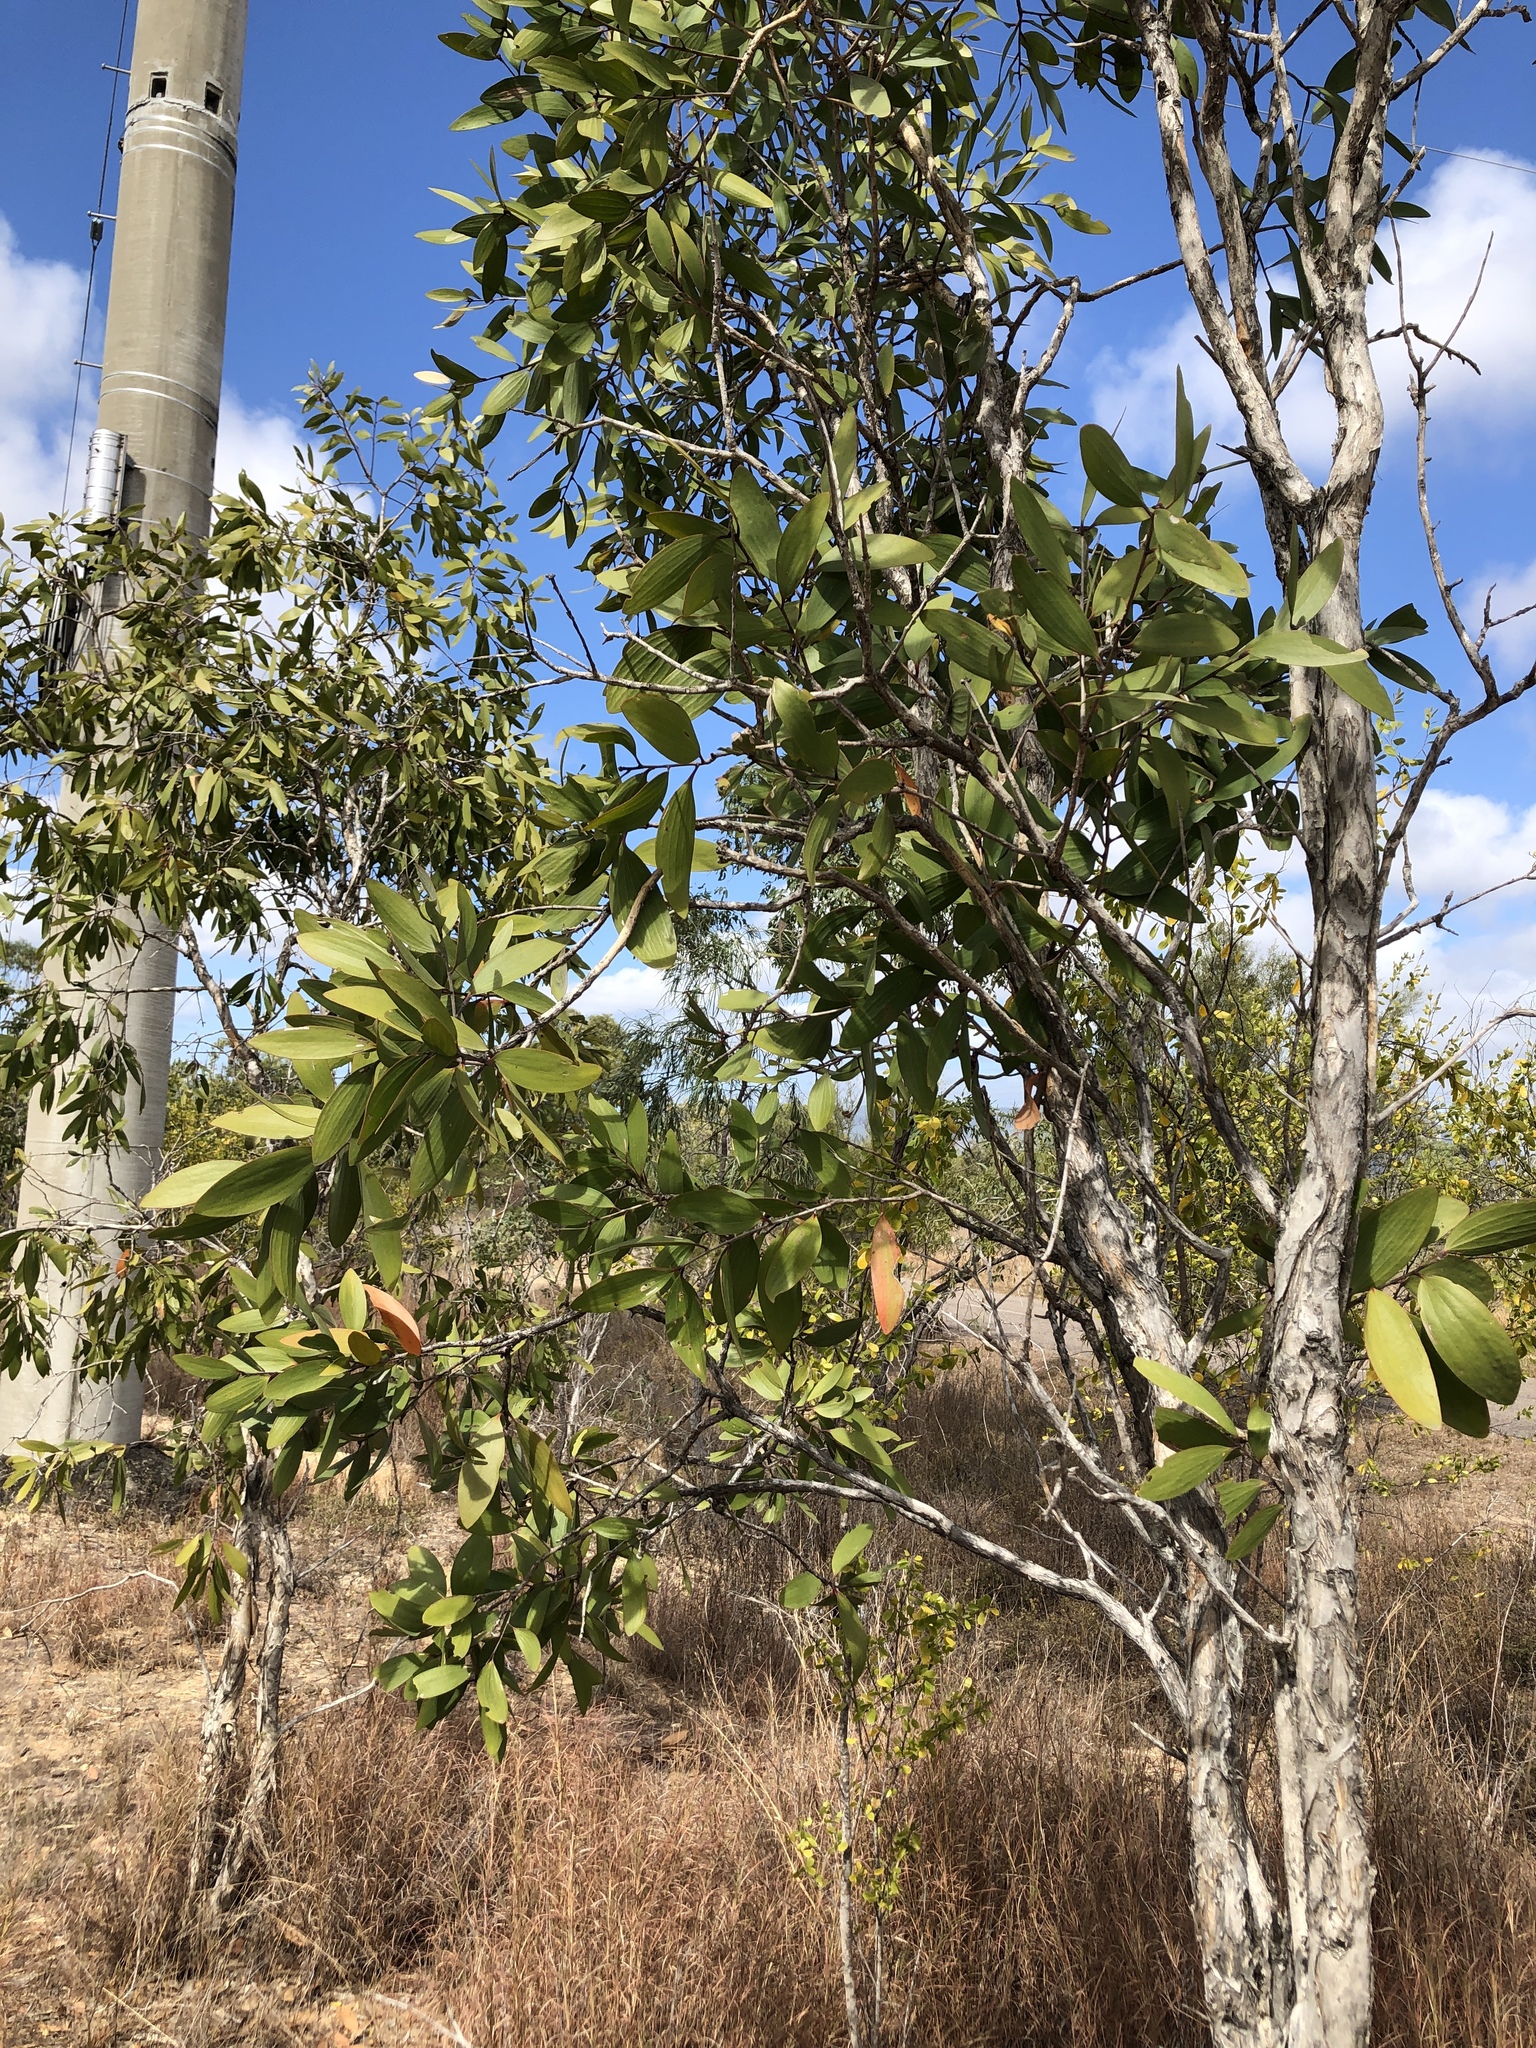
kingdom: Plantae
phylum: Tracheophyta
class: Magnoliopsida
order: Myrtales
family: Myrtaceae
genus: Melaleuca
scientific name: Melaleuca viridiflora
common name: Brown-leaved paperbark
